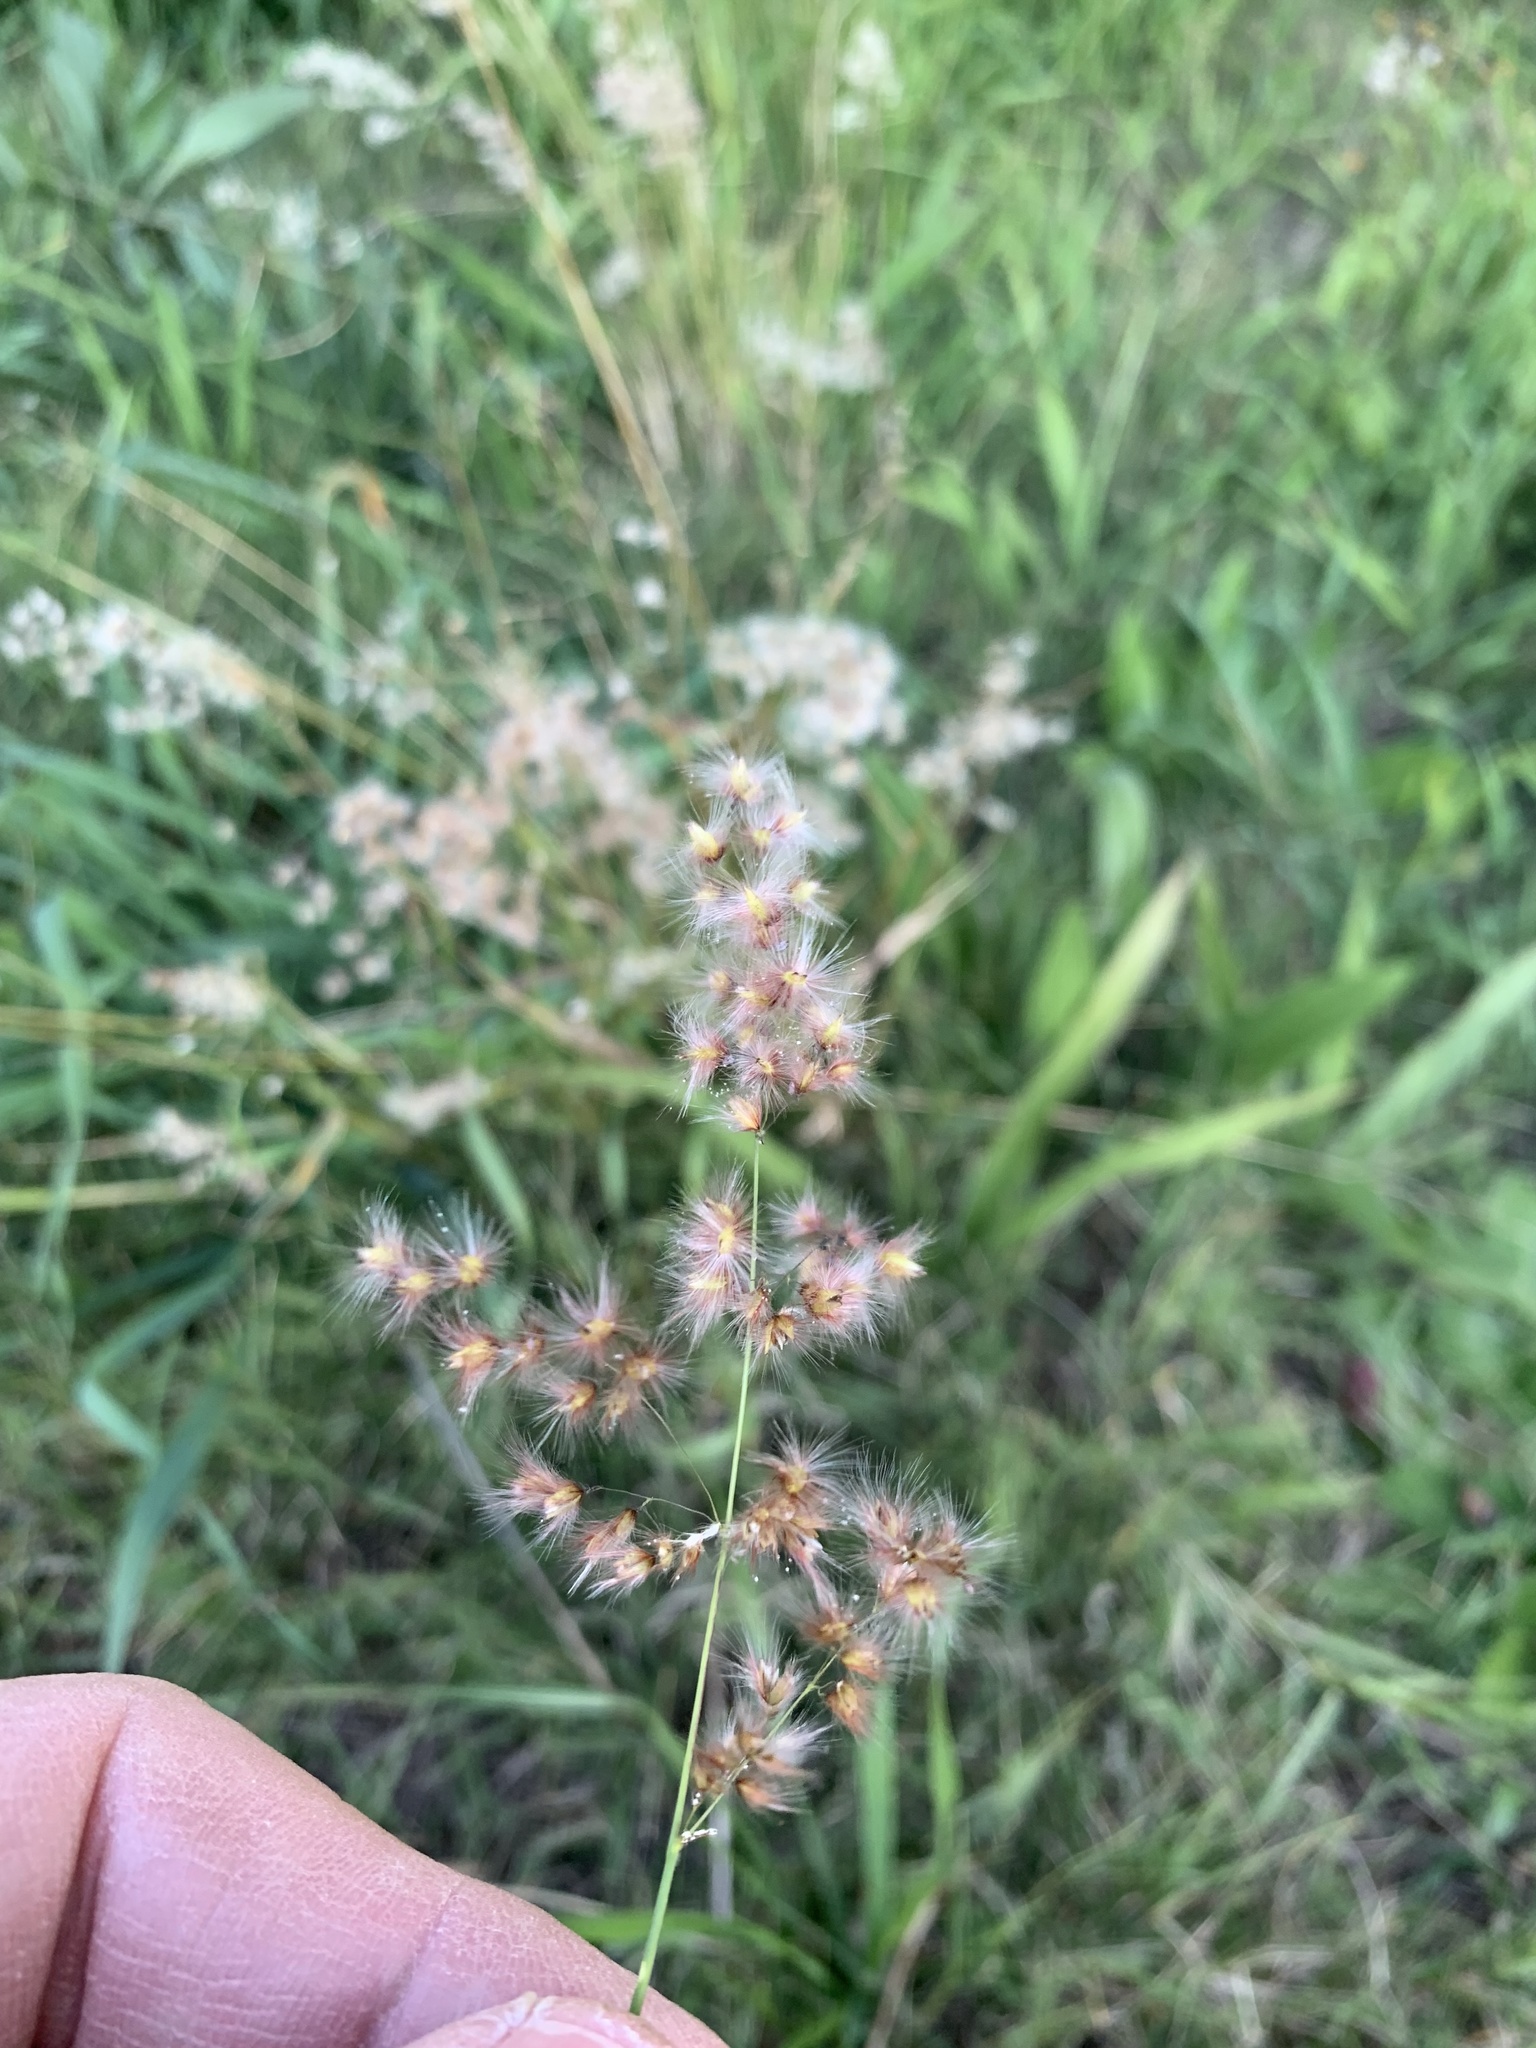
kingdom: Plantae
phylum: Tracheophyta
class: Liliopsida
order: Poales
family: Poaceae
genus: Melinis
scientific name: Melinis repens
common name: Rose natal grass
